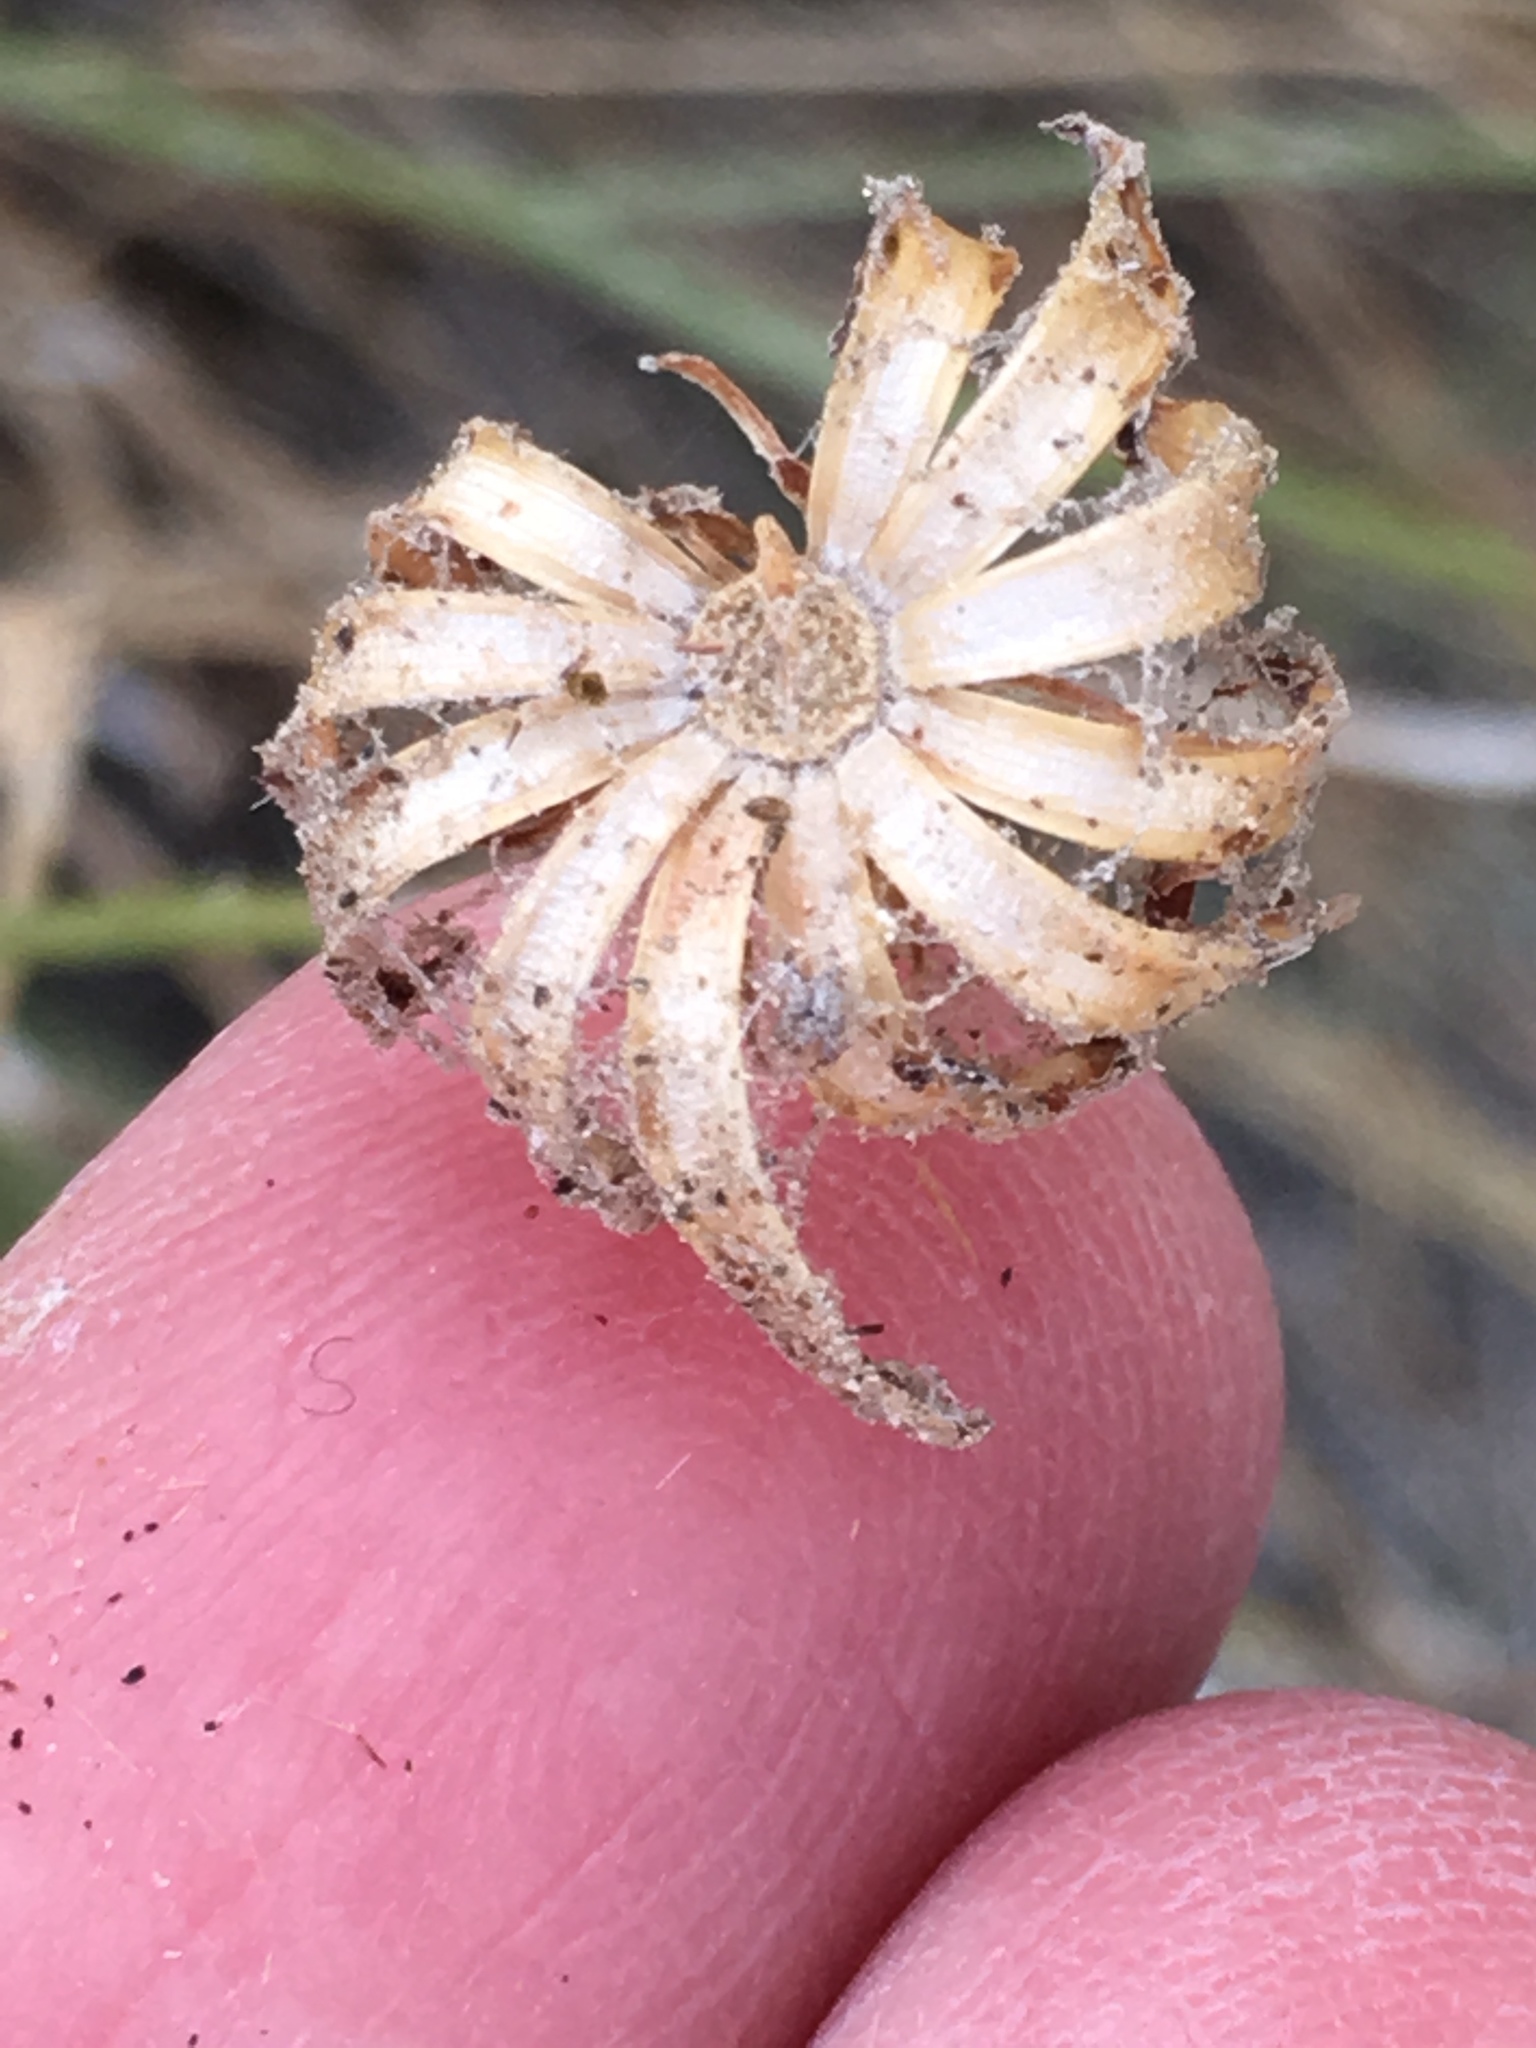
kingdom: Plantae
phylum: Tracheophyta
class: Magnoliopsida
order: Asterales
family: Asteraceae
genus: Adenophyllum
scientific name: Adenophyllum porophylloides
